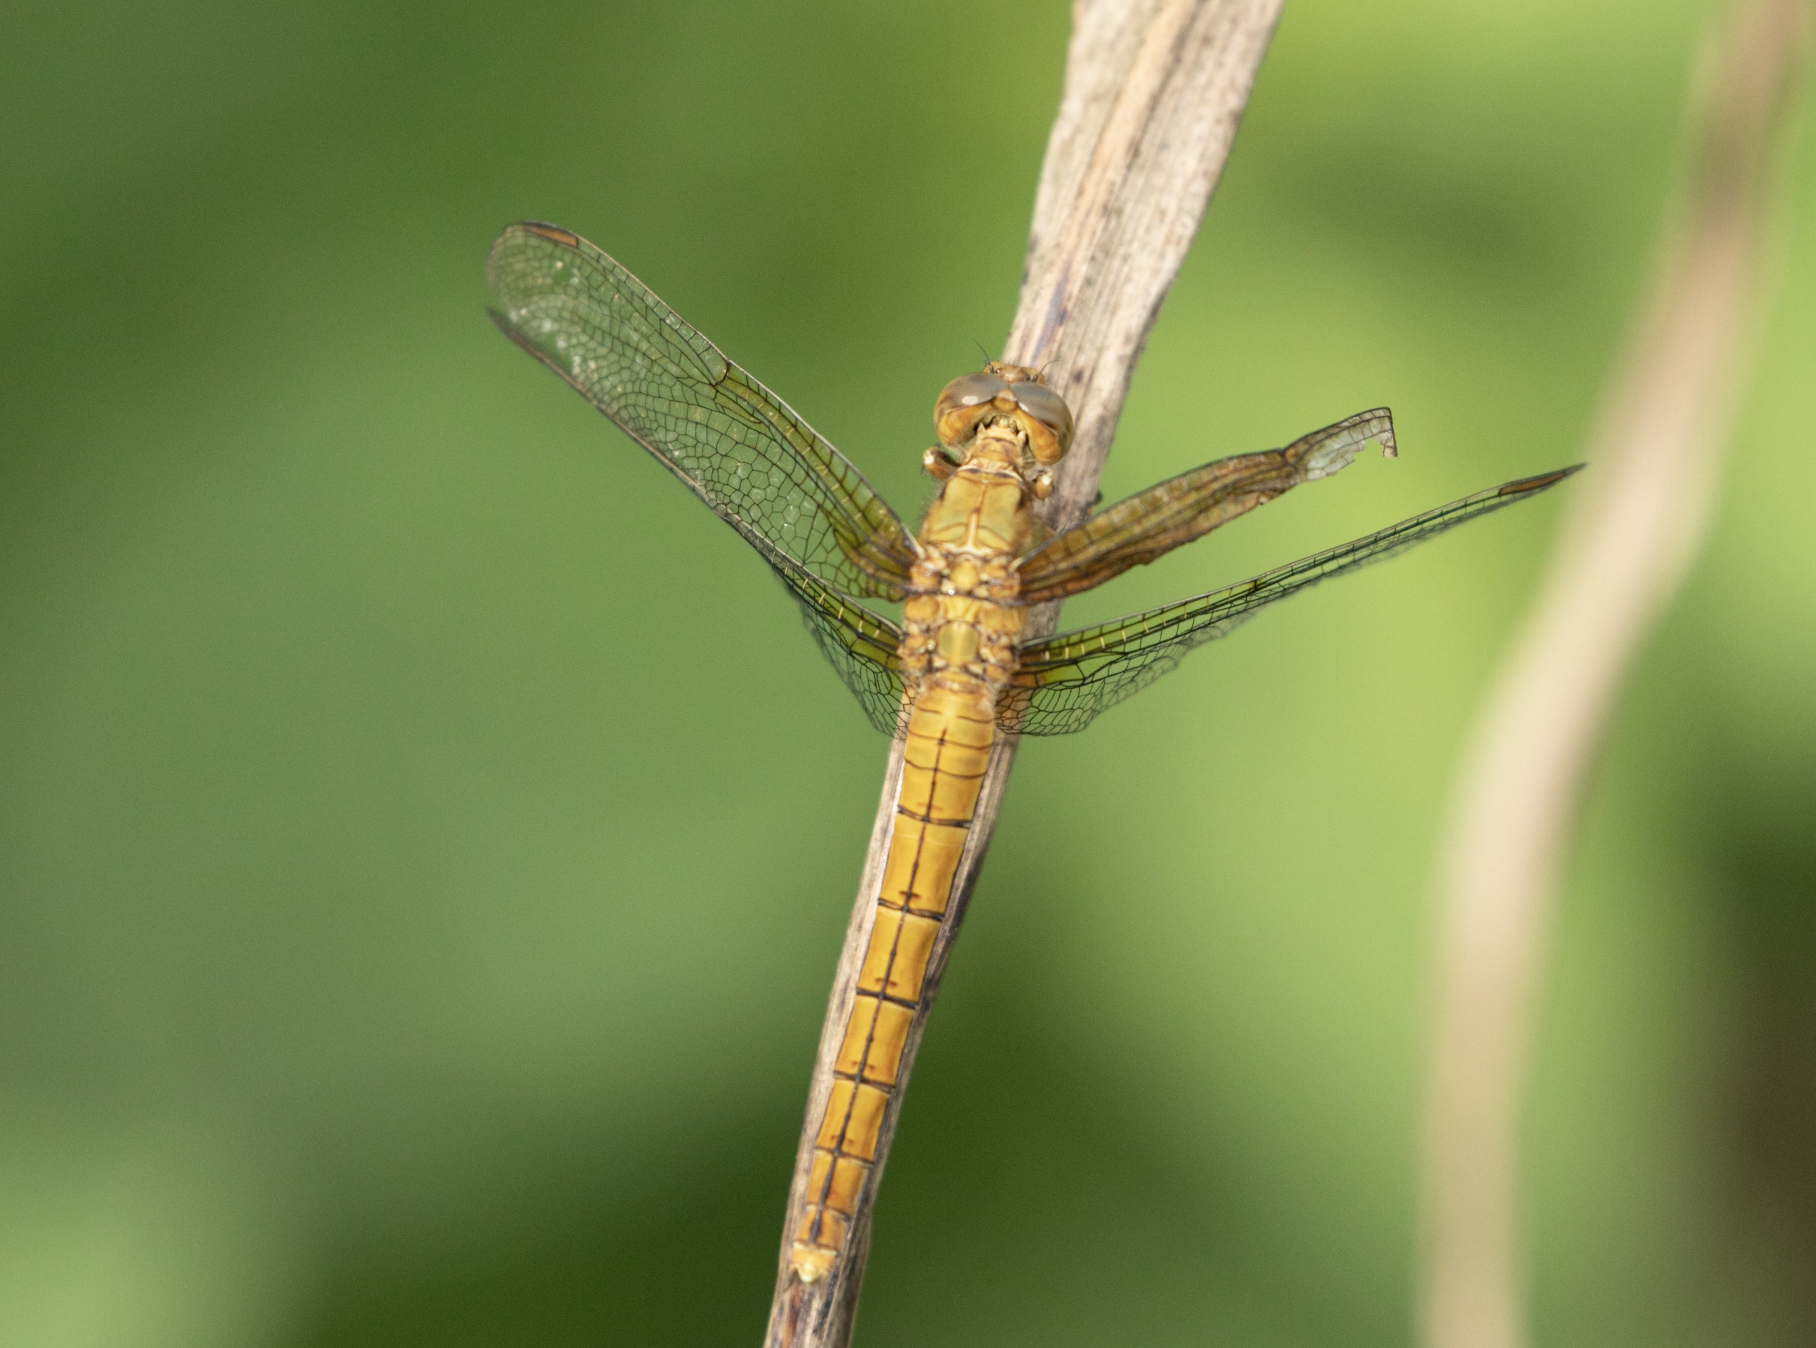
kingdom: Animalia
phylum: Arthropoda
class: Insecta
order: Odonata
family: Libellulidae
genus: Orthetrum
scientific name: Orthetrum coerulescens
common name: Keeled skimmer
